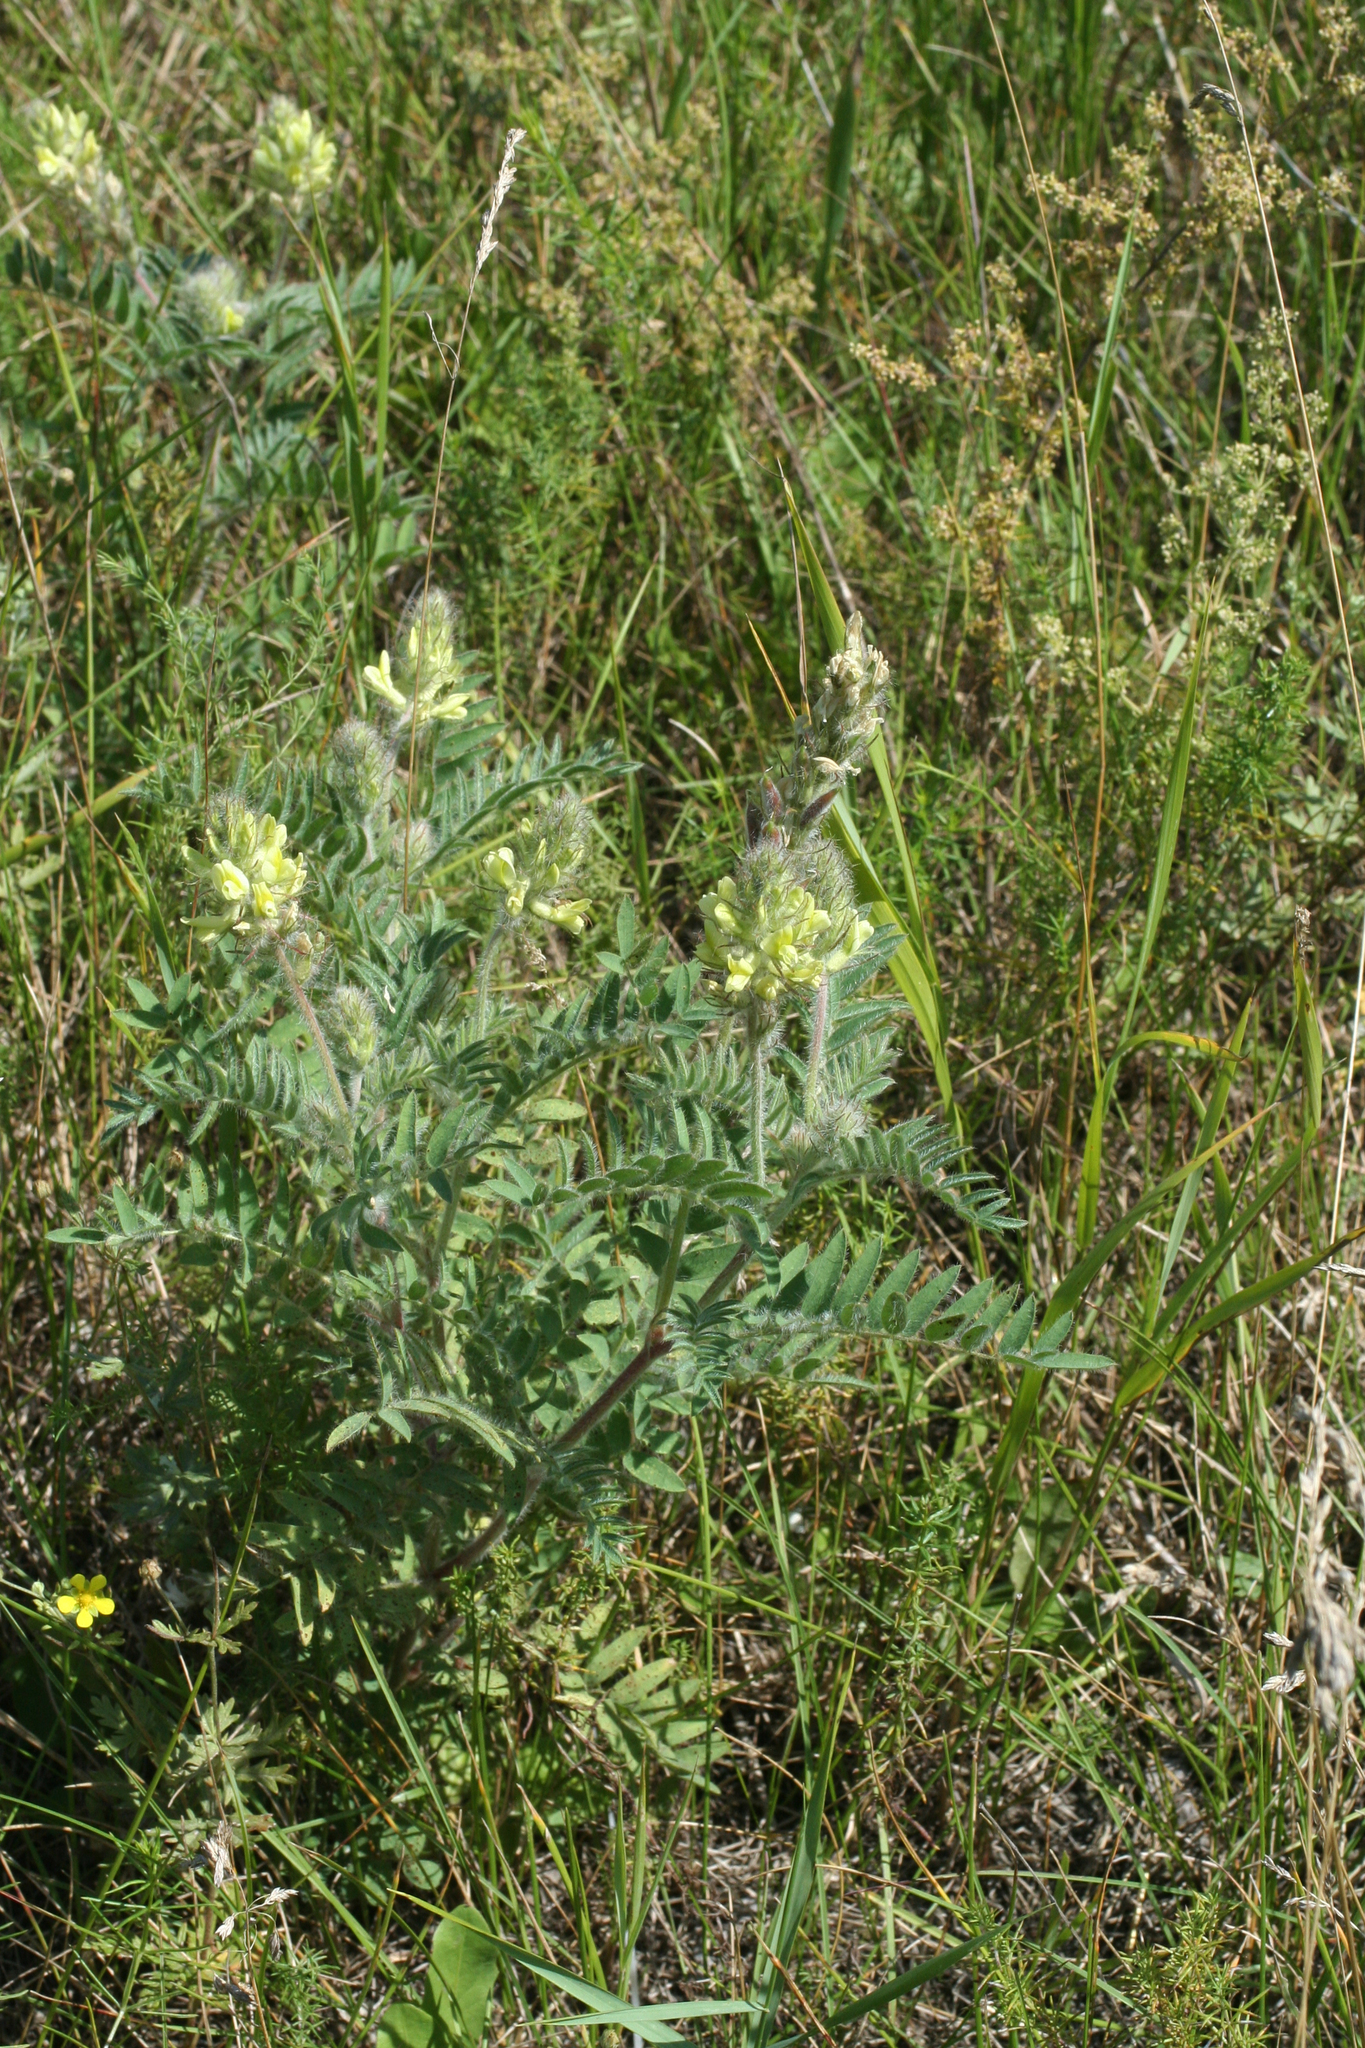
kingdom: Plantae
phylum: Tracheophyta
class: Magnoliopsida
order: Fabales
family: Fabaceae
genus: Oxytropis
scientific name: Oxytropis pilosa
